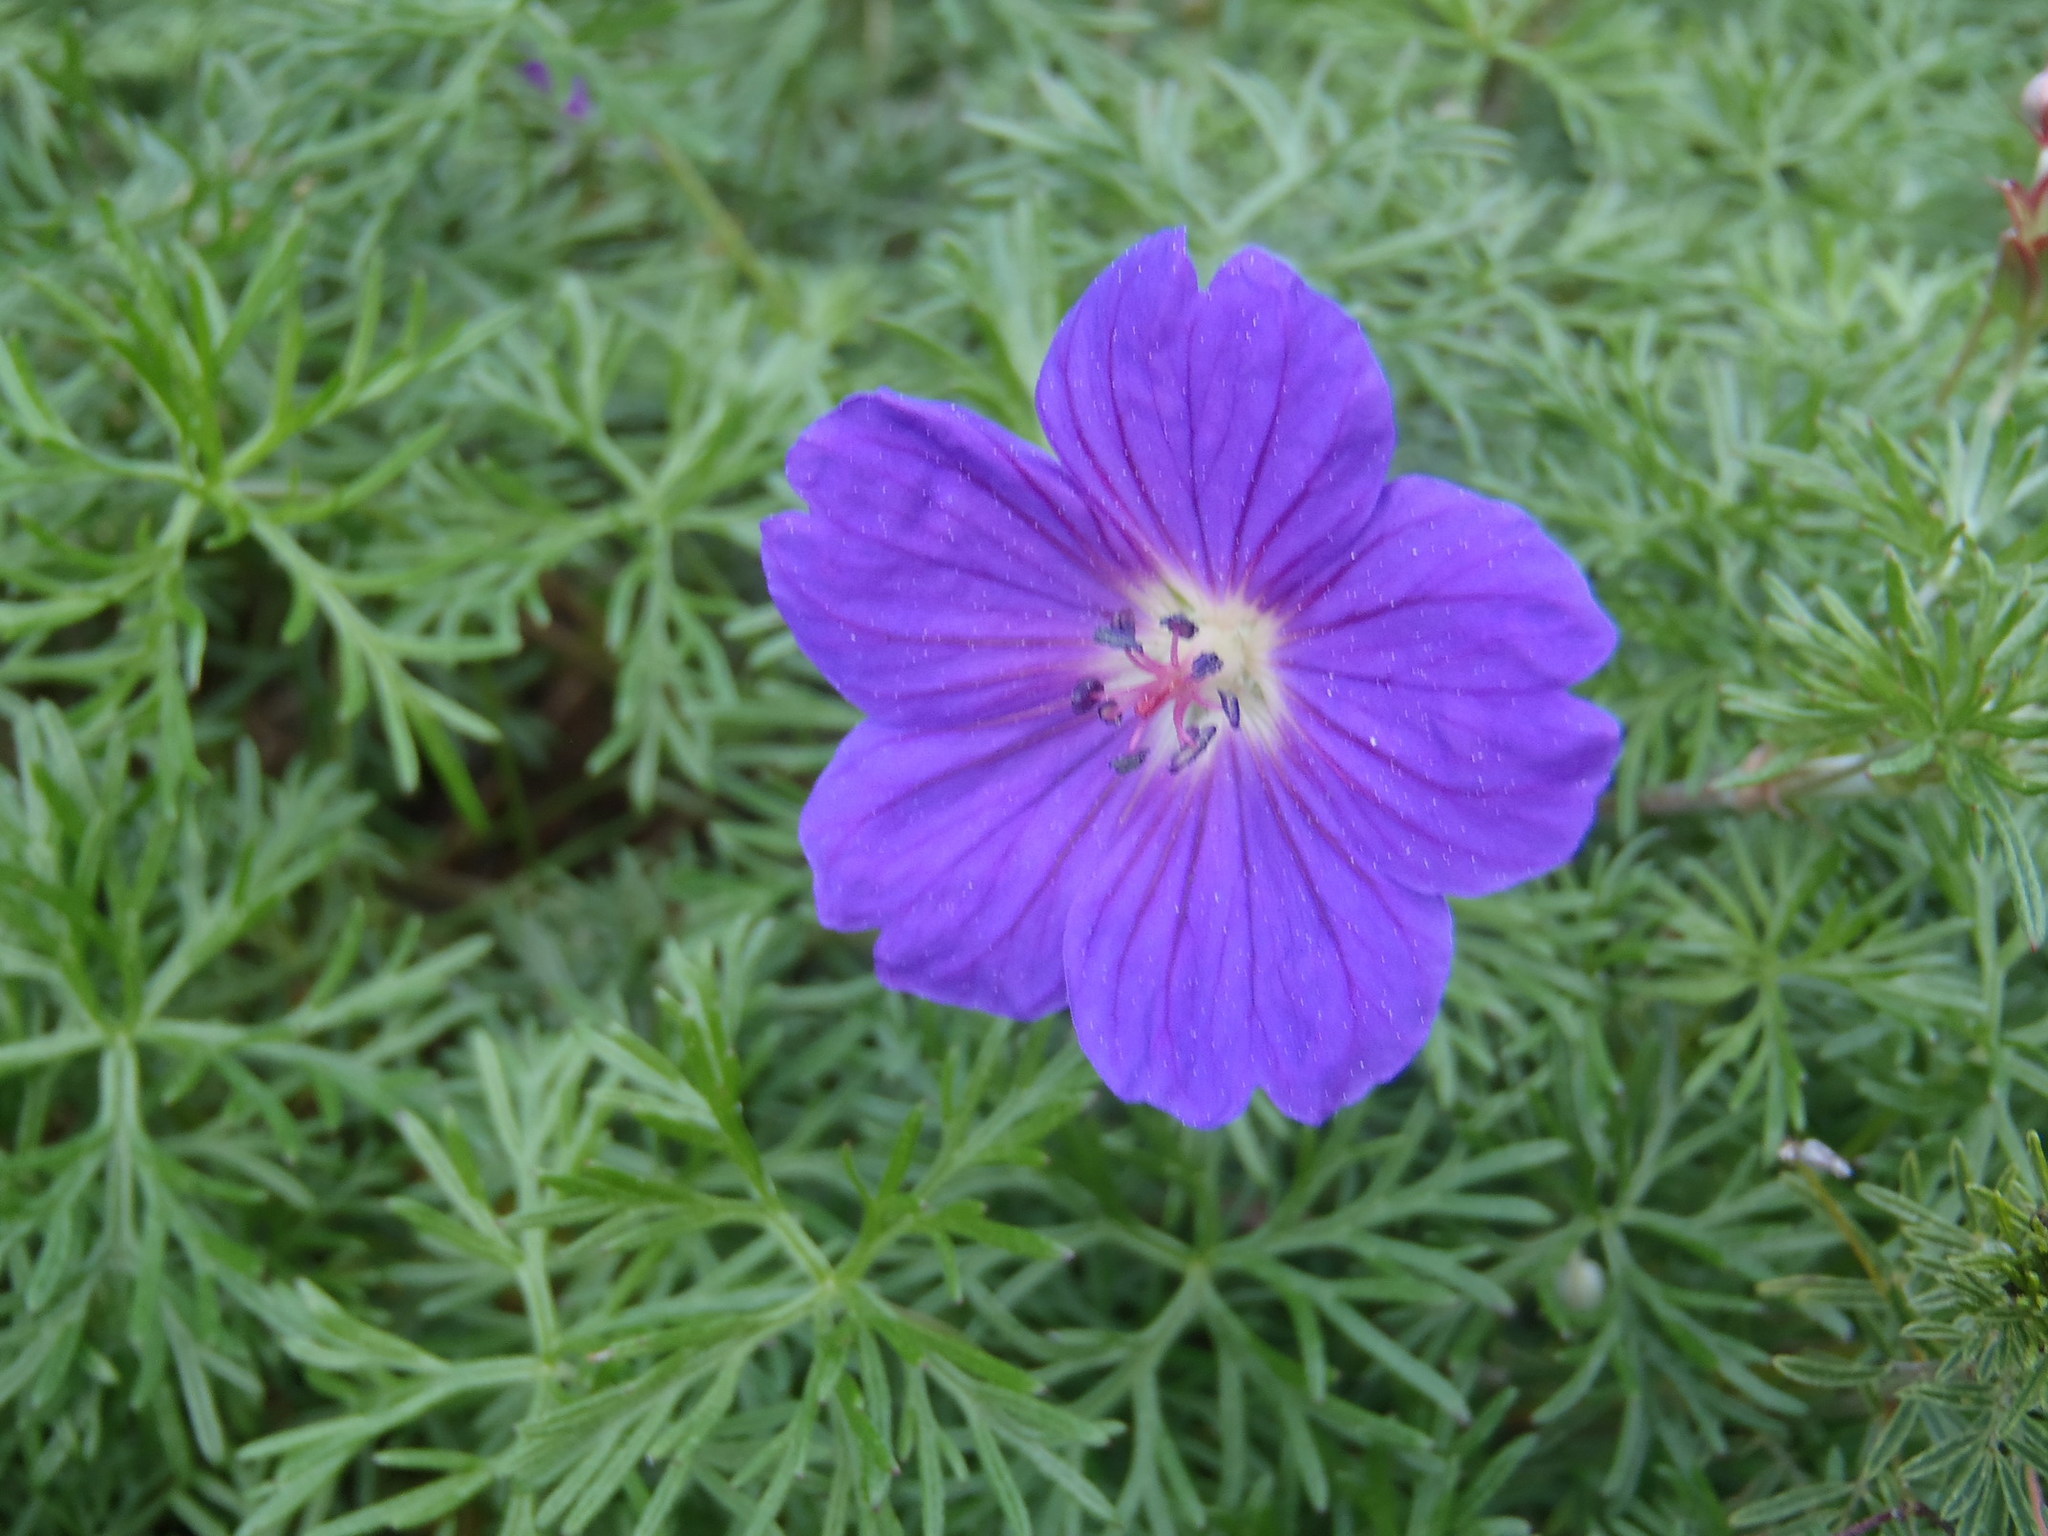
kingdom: Plantae
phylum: Tracheophyta
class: Magnoliopsida
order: Geraniales
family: Geraniaceae
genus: Geranium
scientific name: Geranium incanum
